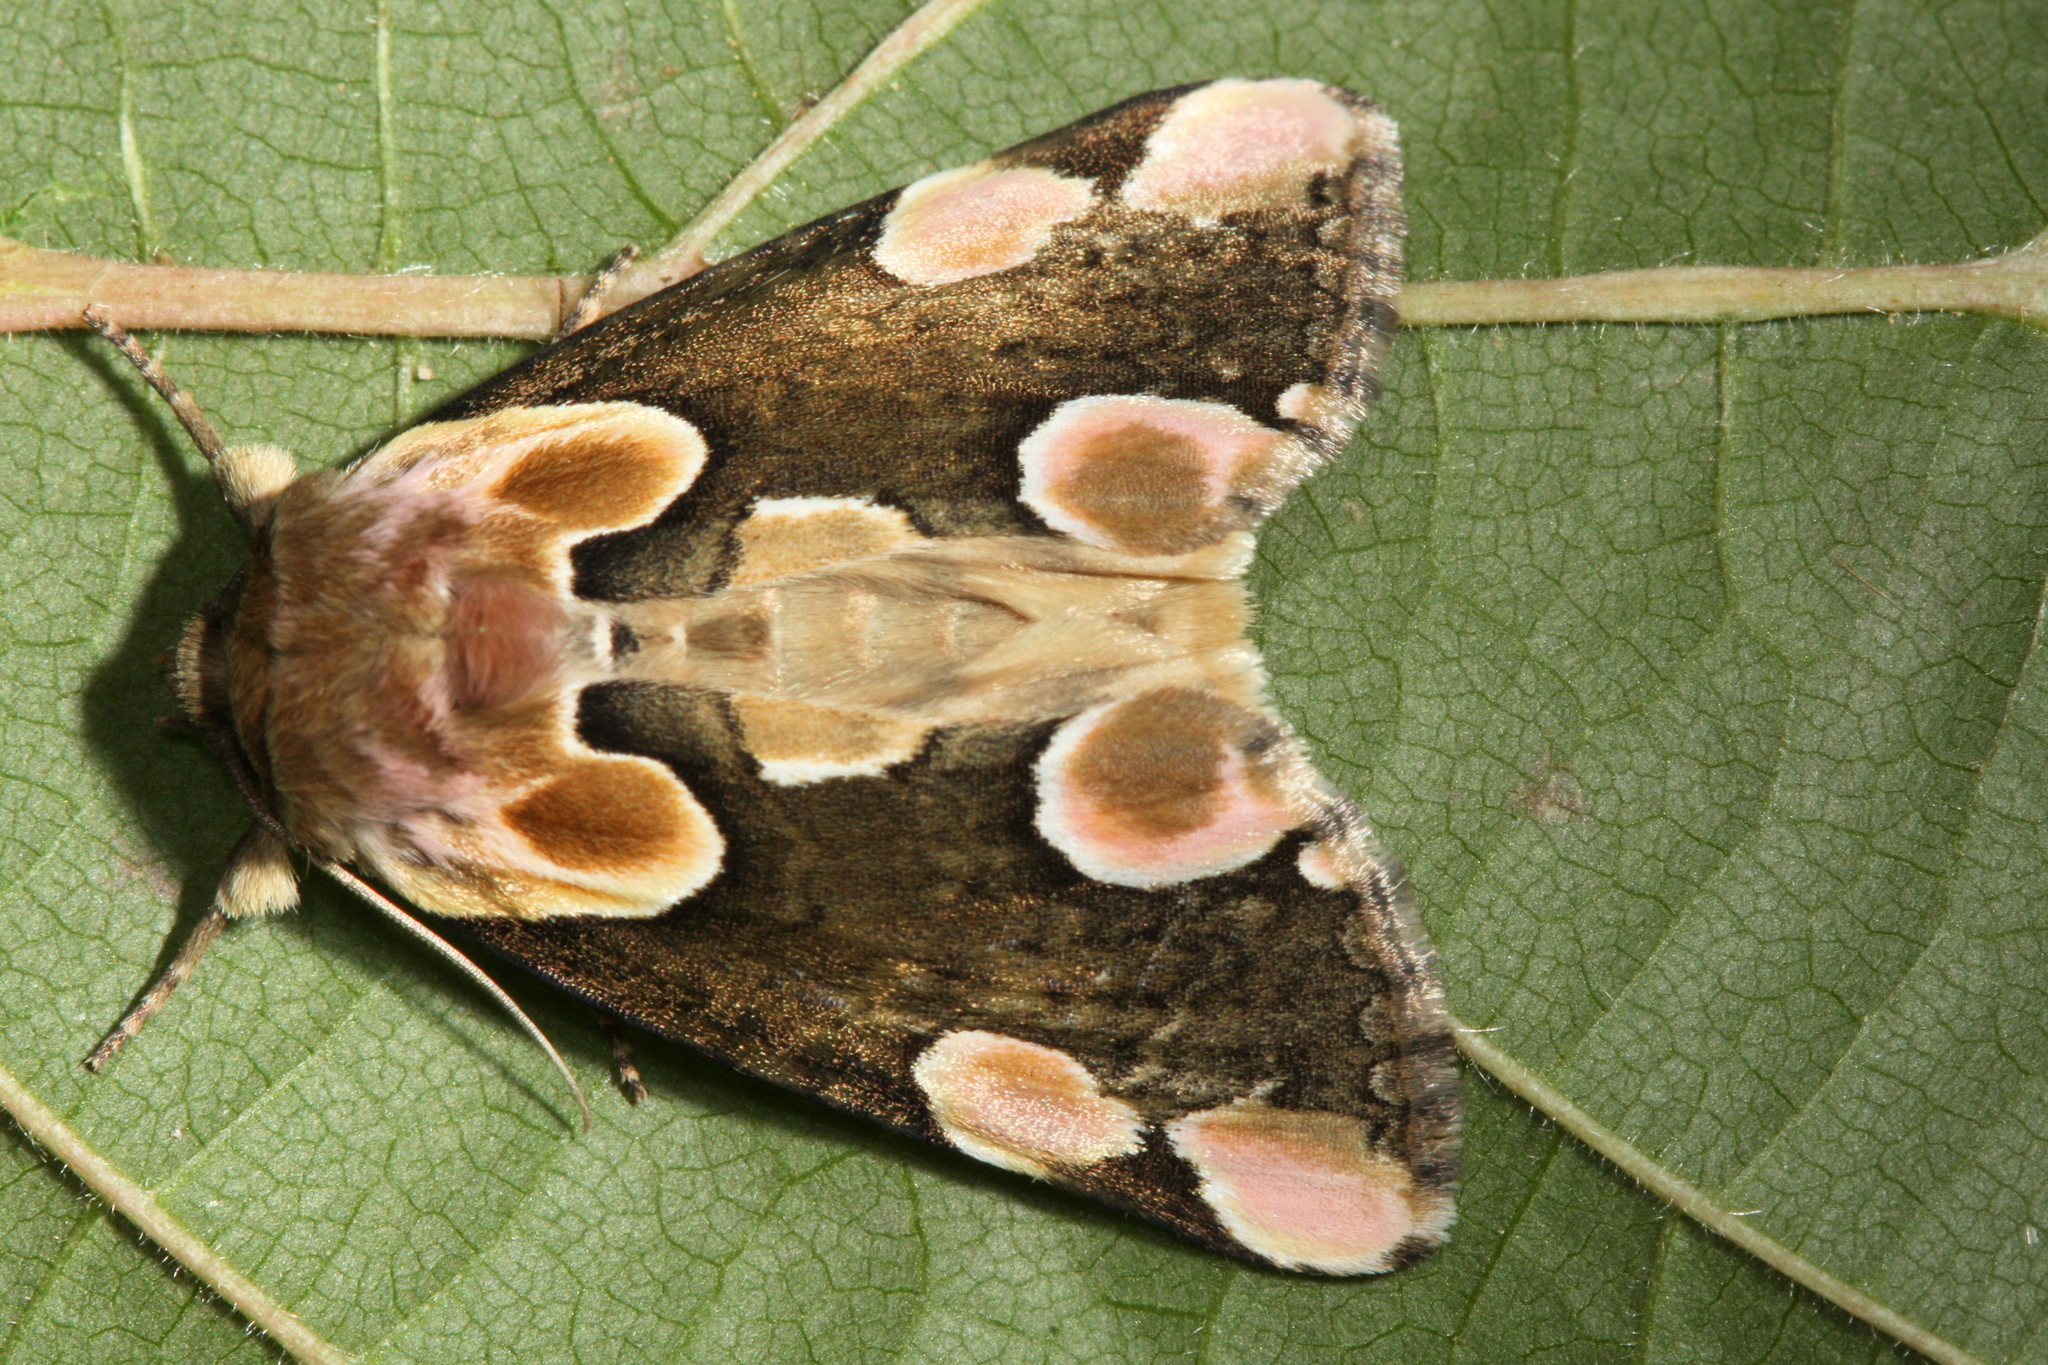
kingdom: Animalia
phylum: Arthropoda
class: Insecta
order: Lepidoptera
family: Drepanidae
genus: Thyatira
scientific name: Thyatira batis
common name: Peach blossom
